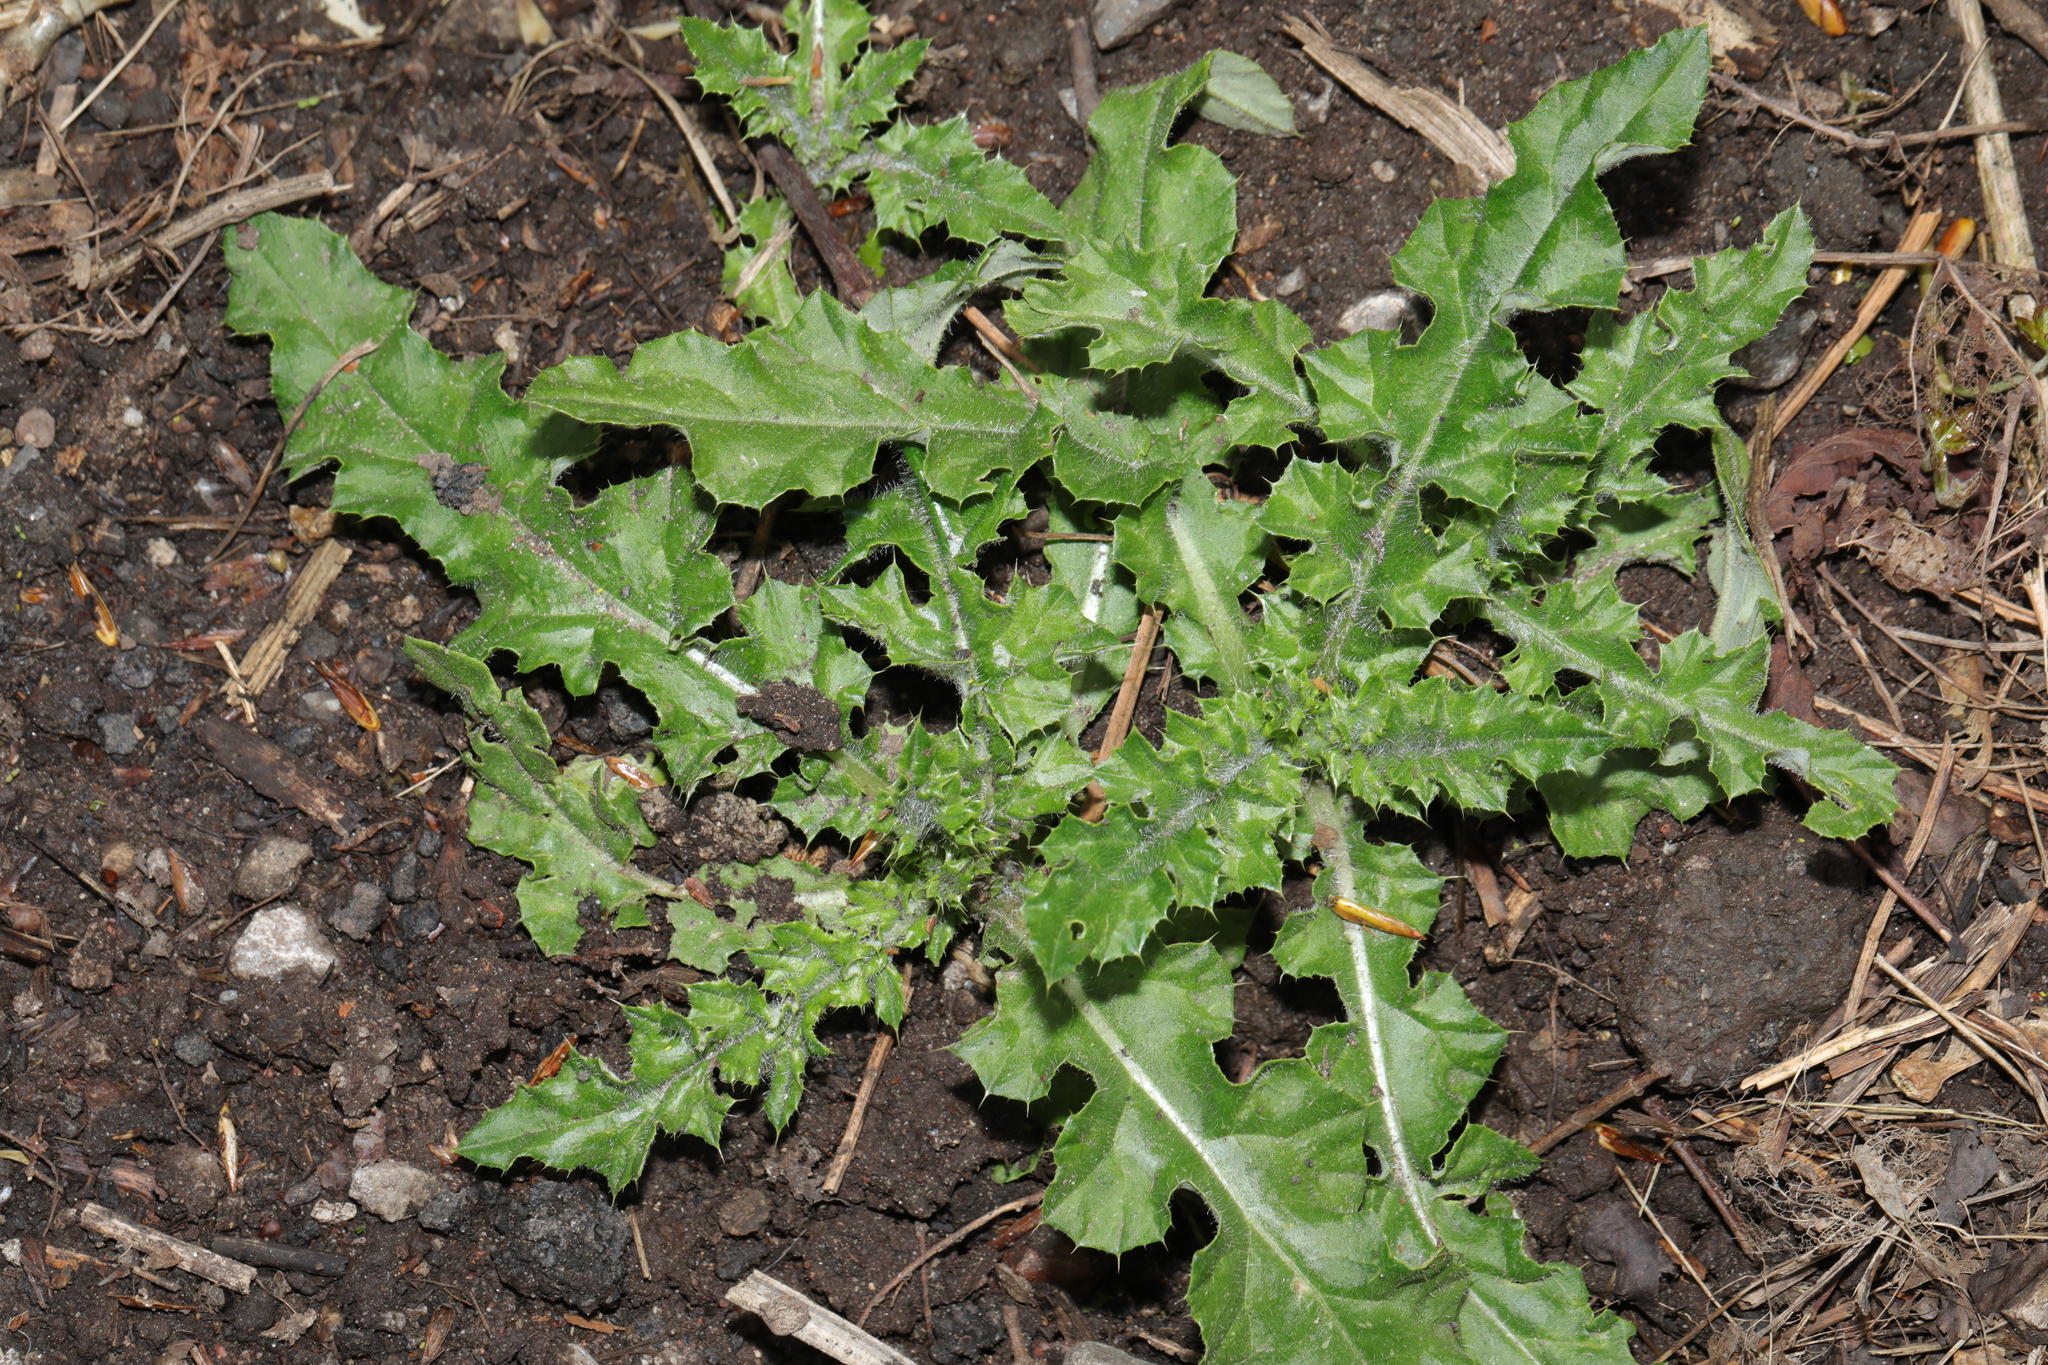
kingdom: Plantae
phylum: Tracheophyta
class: Magnoliopsida
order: Asterales
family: Asteraceae
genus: Cirsium
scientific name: Cirsium arvense
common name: Creeping thistle
